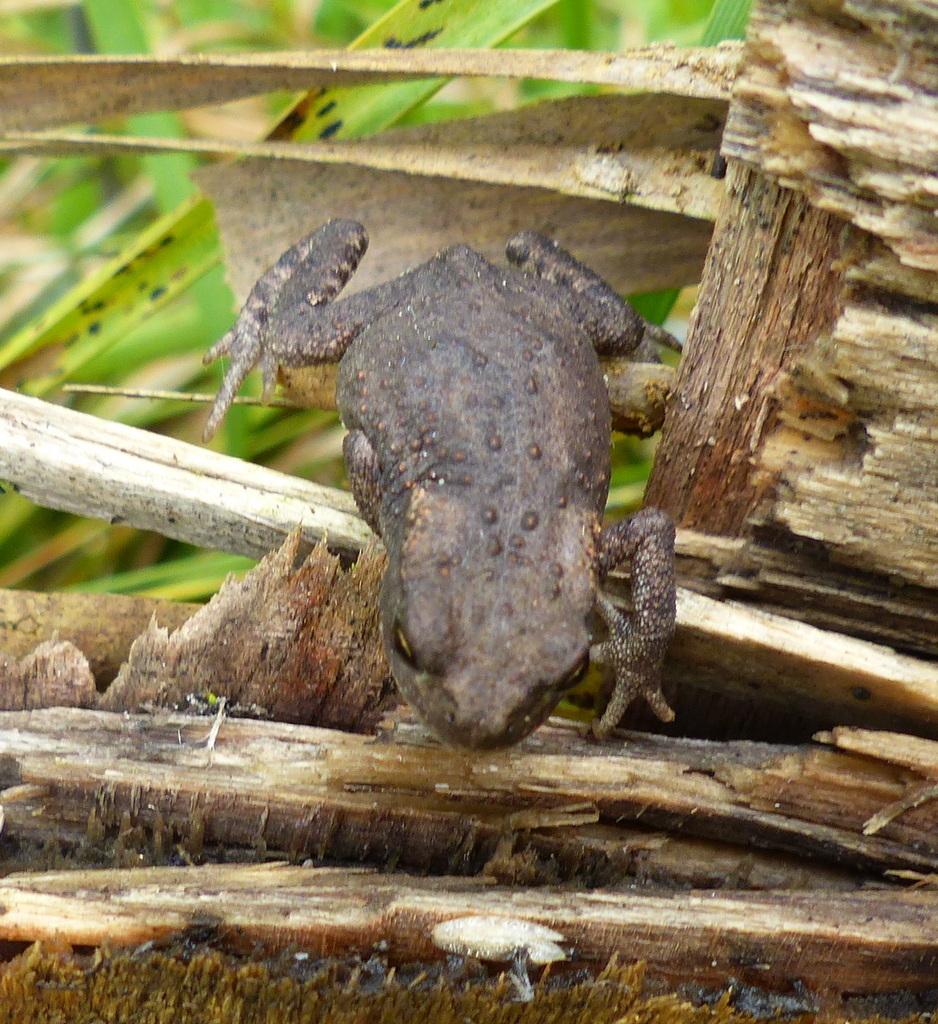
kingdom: Animalia
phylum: Chordata
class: Amphibia
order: Anura
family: Bufonidae
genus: Bufo
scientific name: Bufo bufo
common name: Common toad
